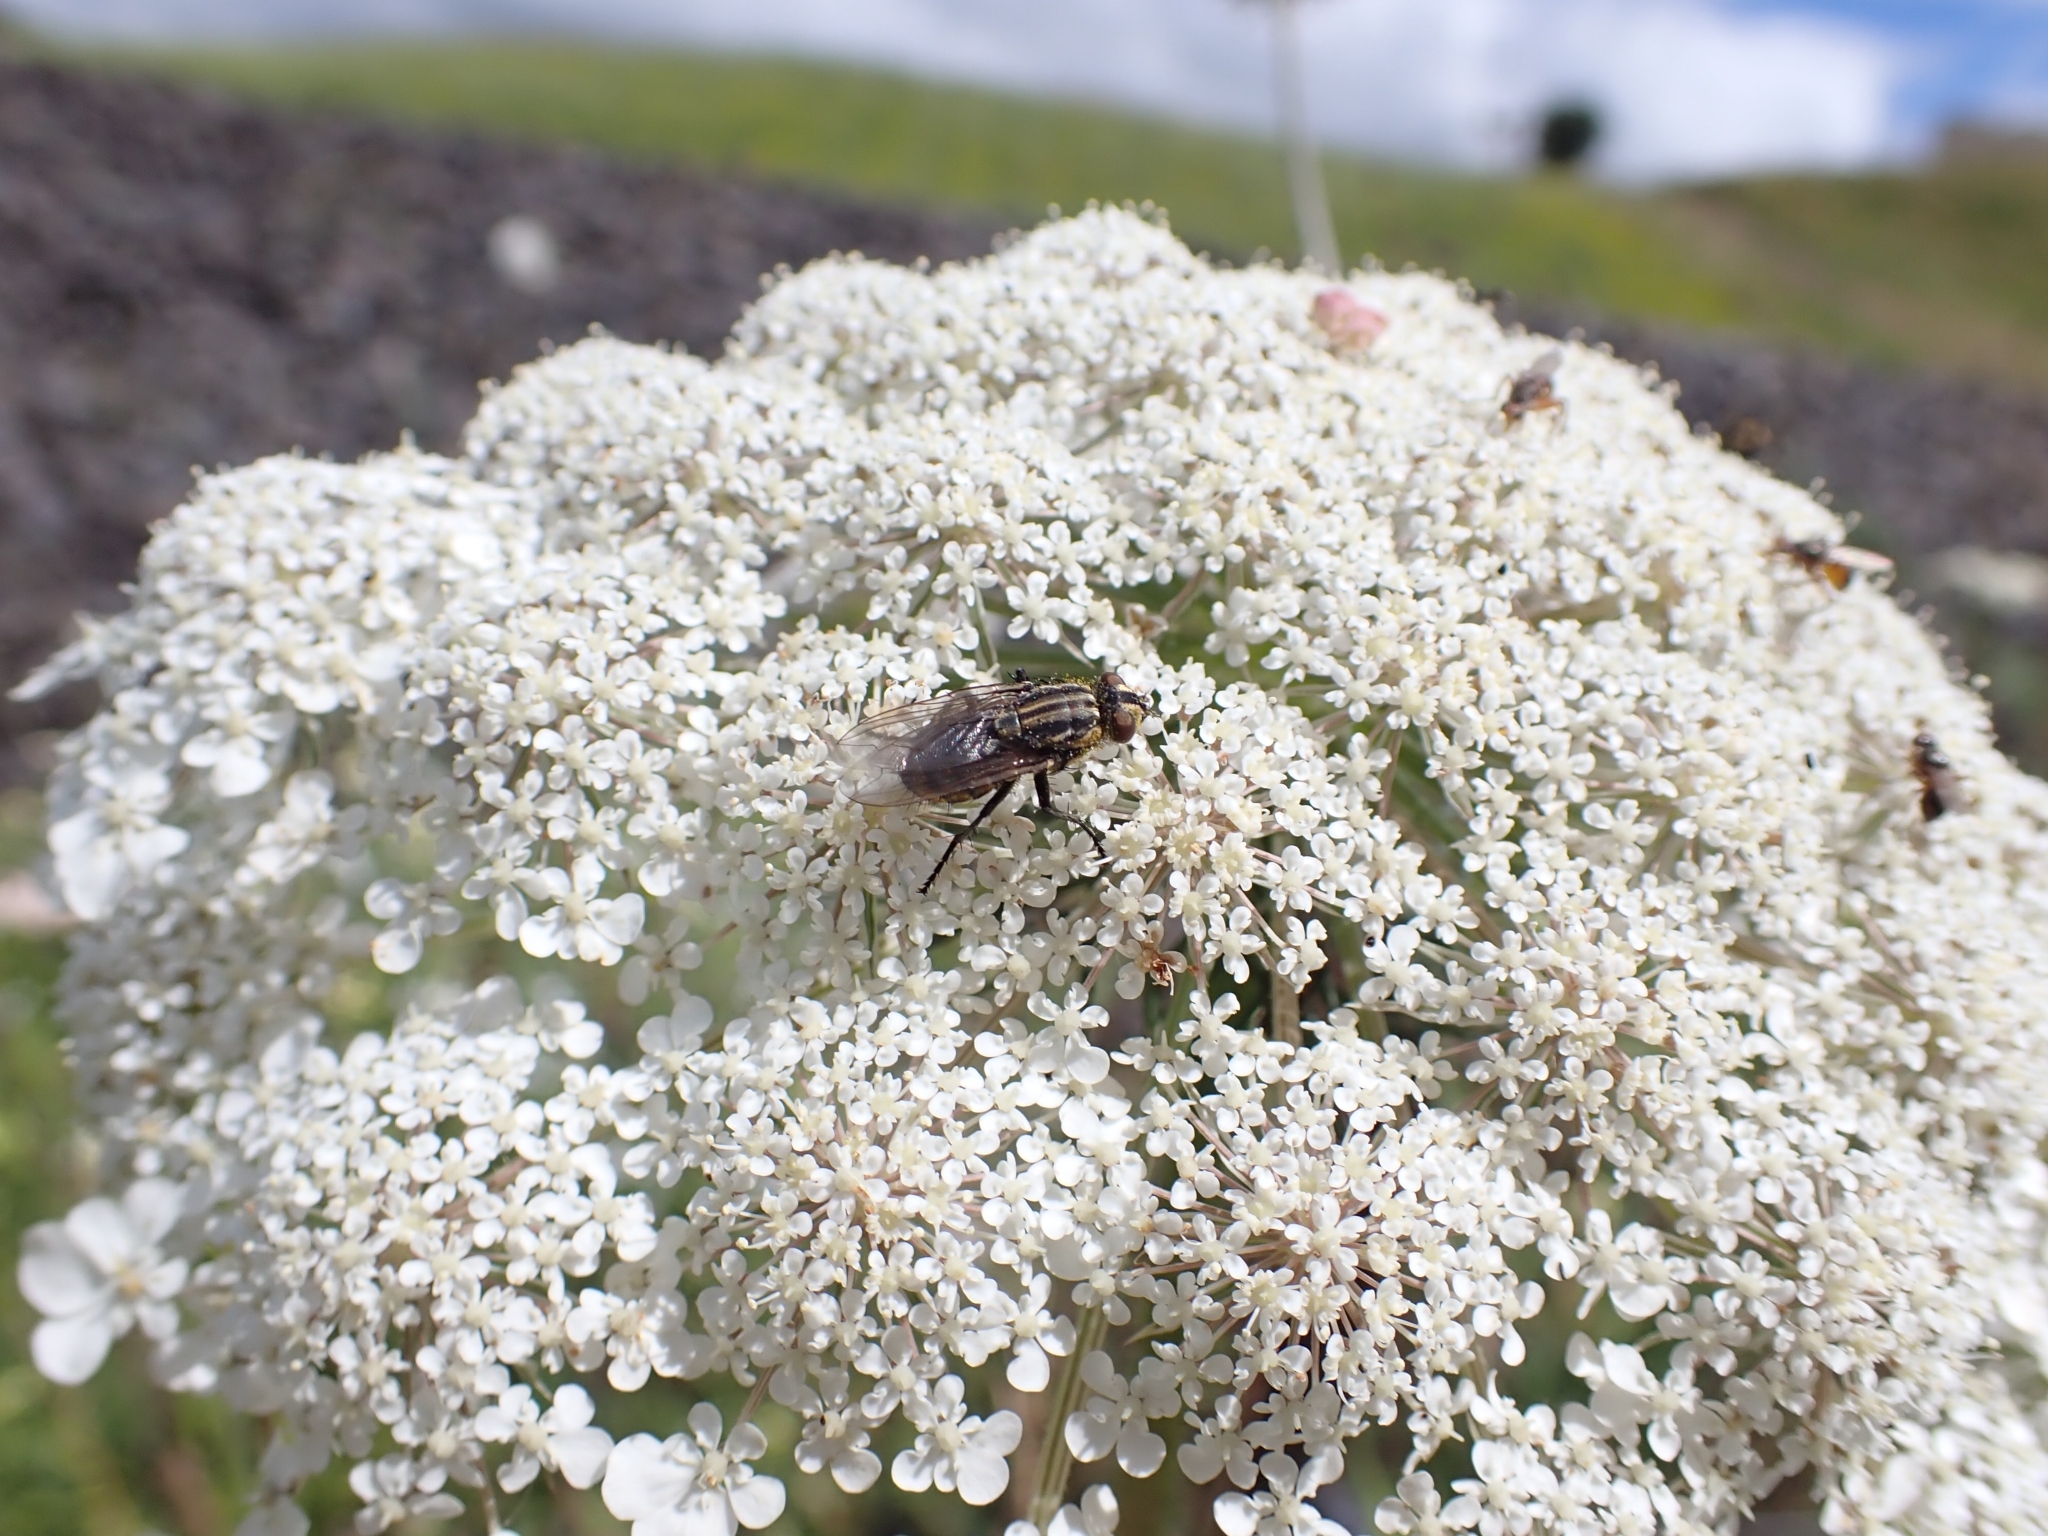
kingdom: Animalia
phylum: Arthropoda
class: Insecta
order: Diptera
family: Sarcophagidae
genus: Oxysarcodexia
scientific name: Oxysarcodexia varia
